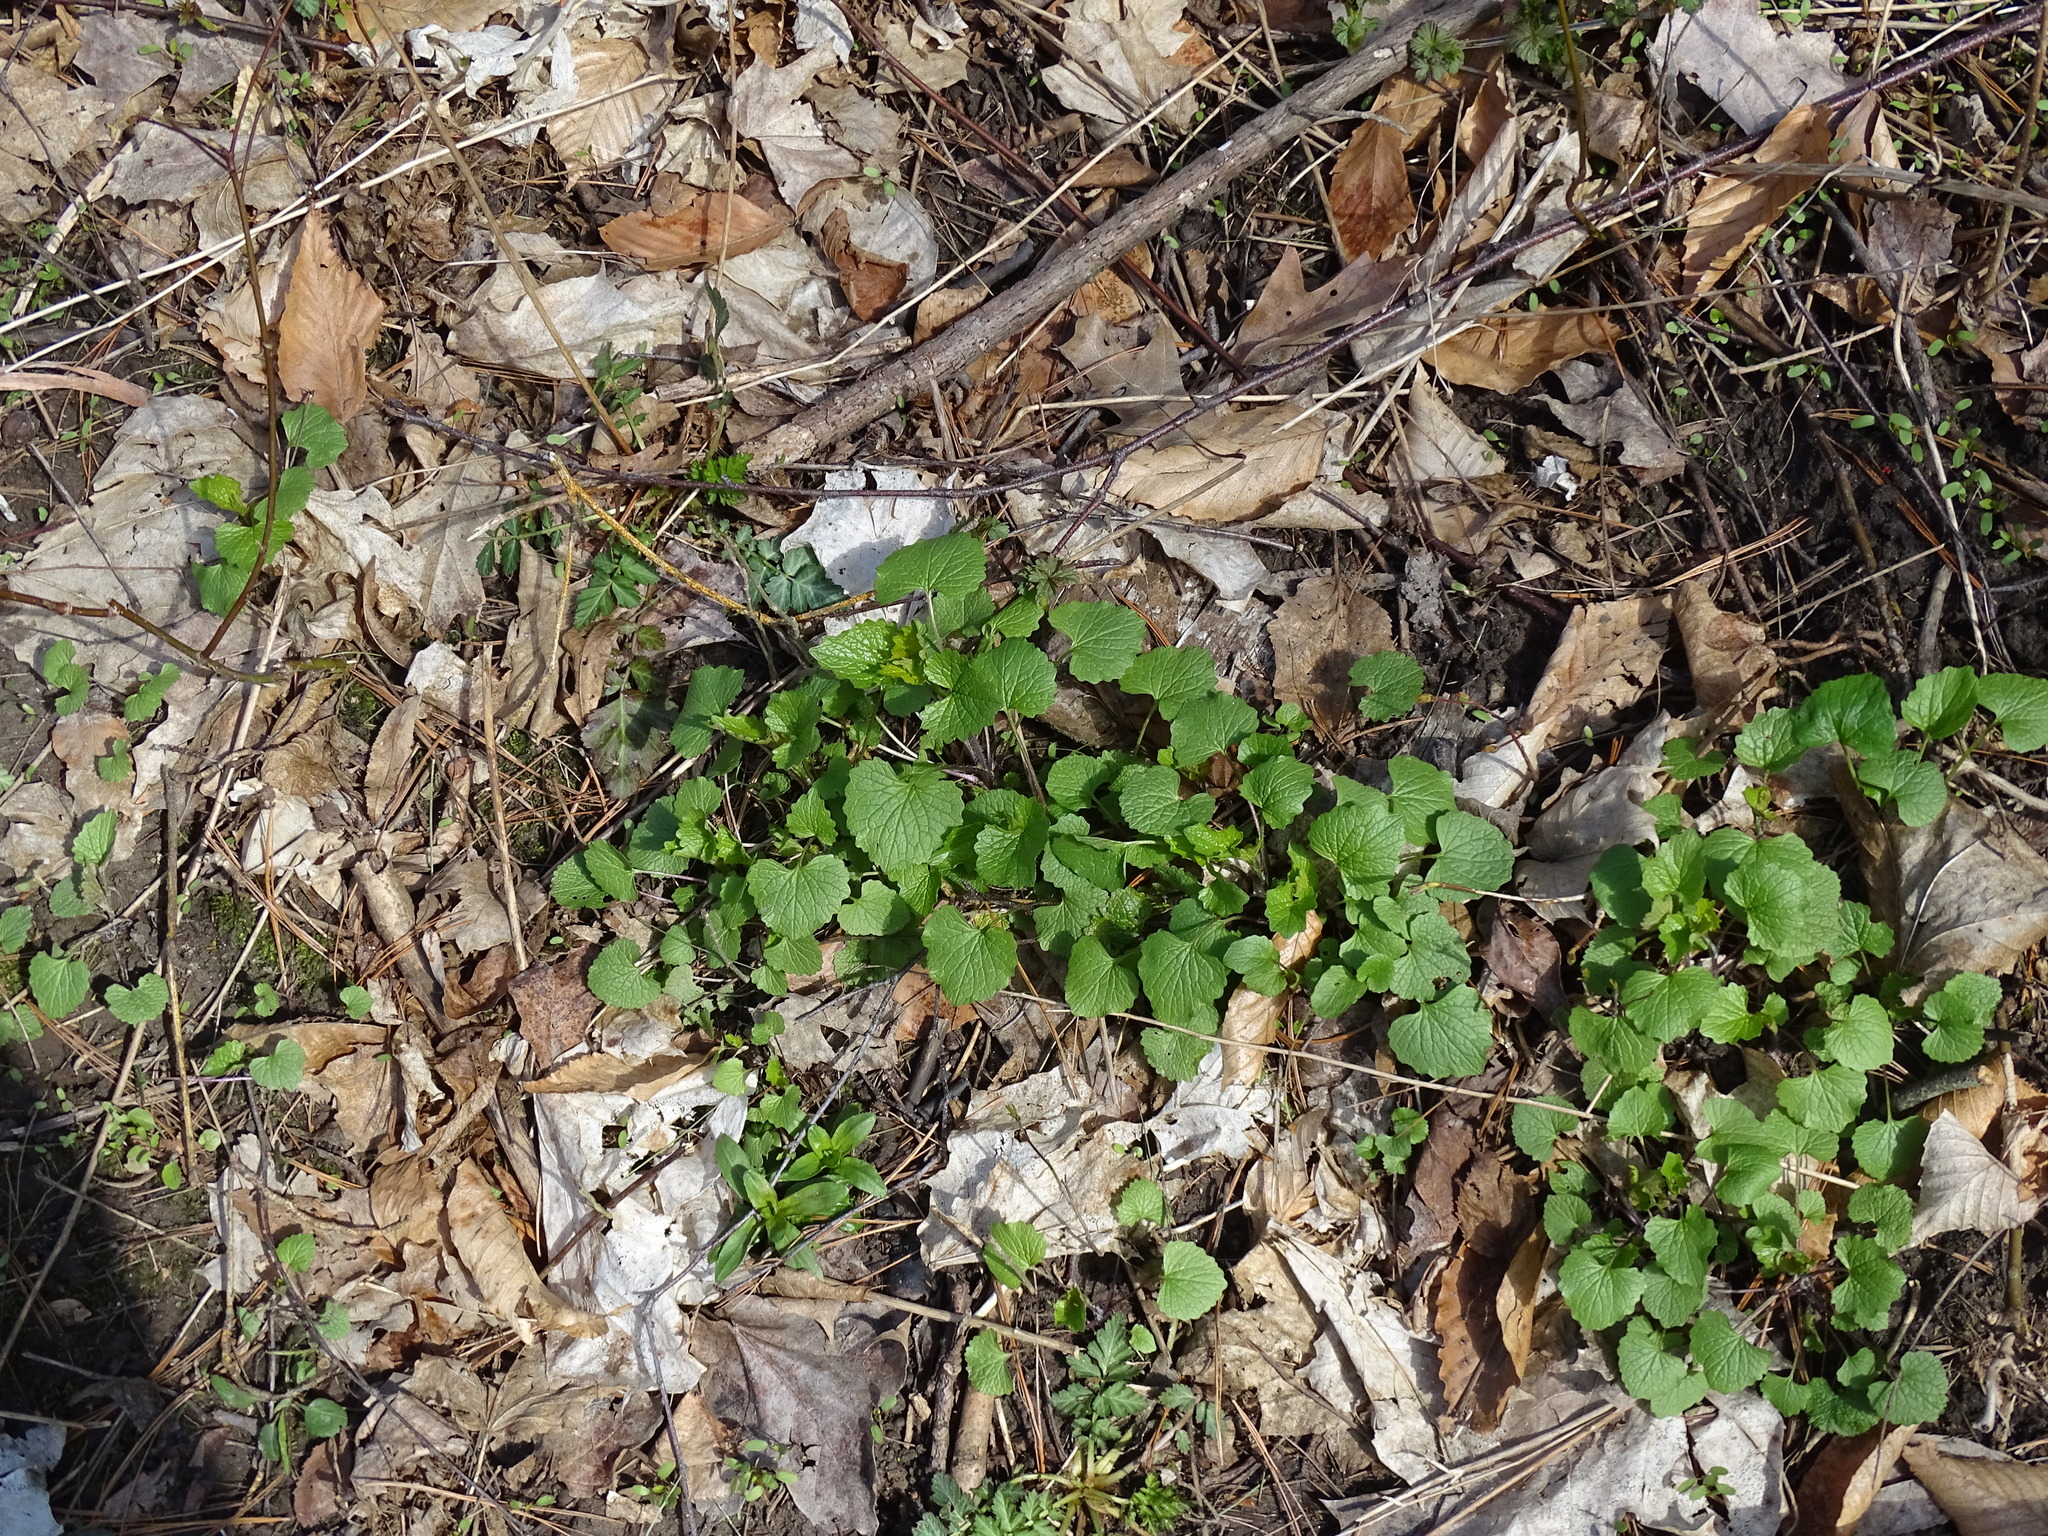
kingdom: Plantae
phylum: Tracheophyta
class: Magnoliopsida
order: Brassicales
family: Brassicaceae
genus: Alliaria
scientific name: Alliaria petiolata
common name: Garlic mustard
